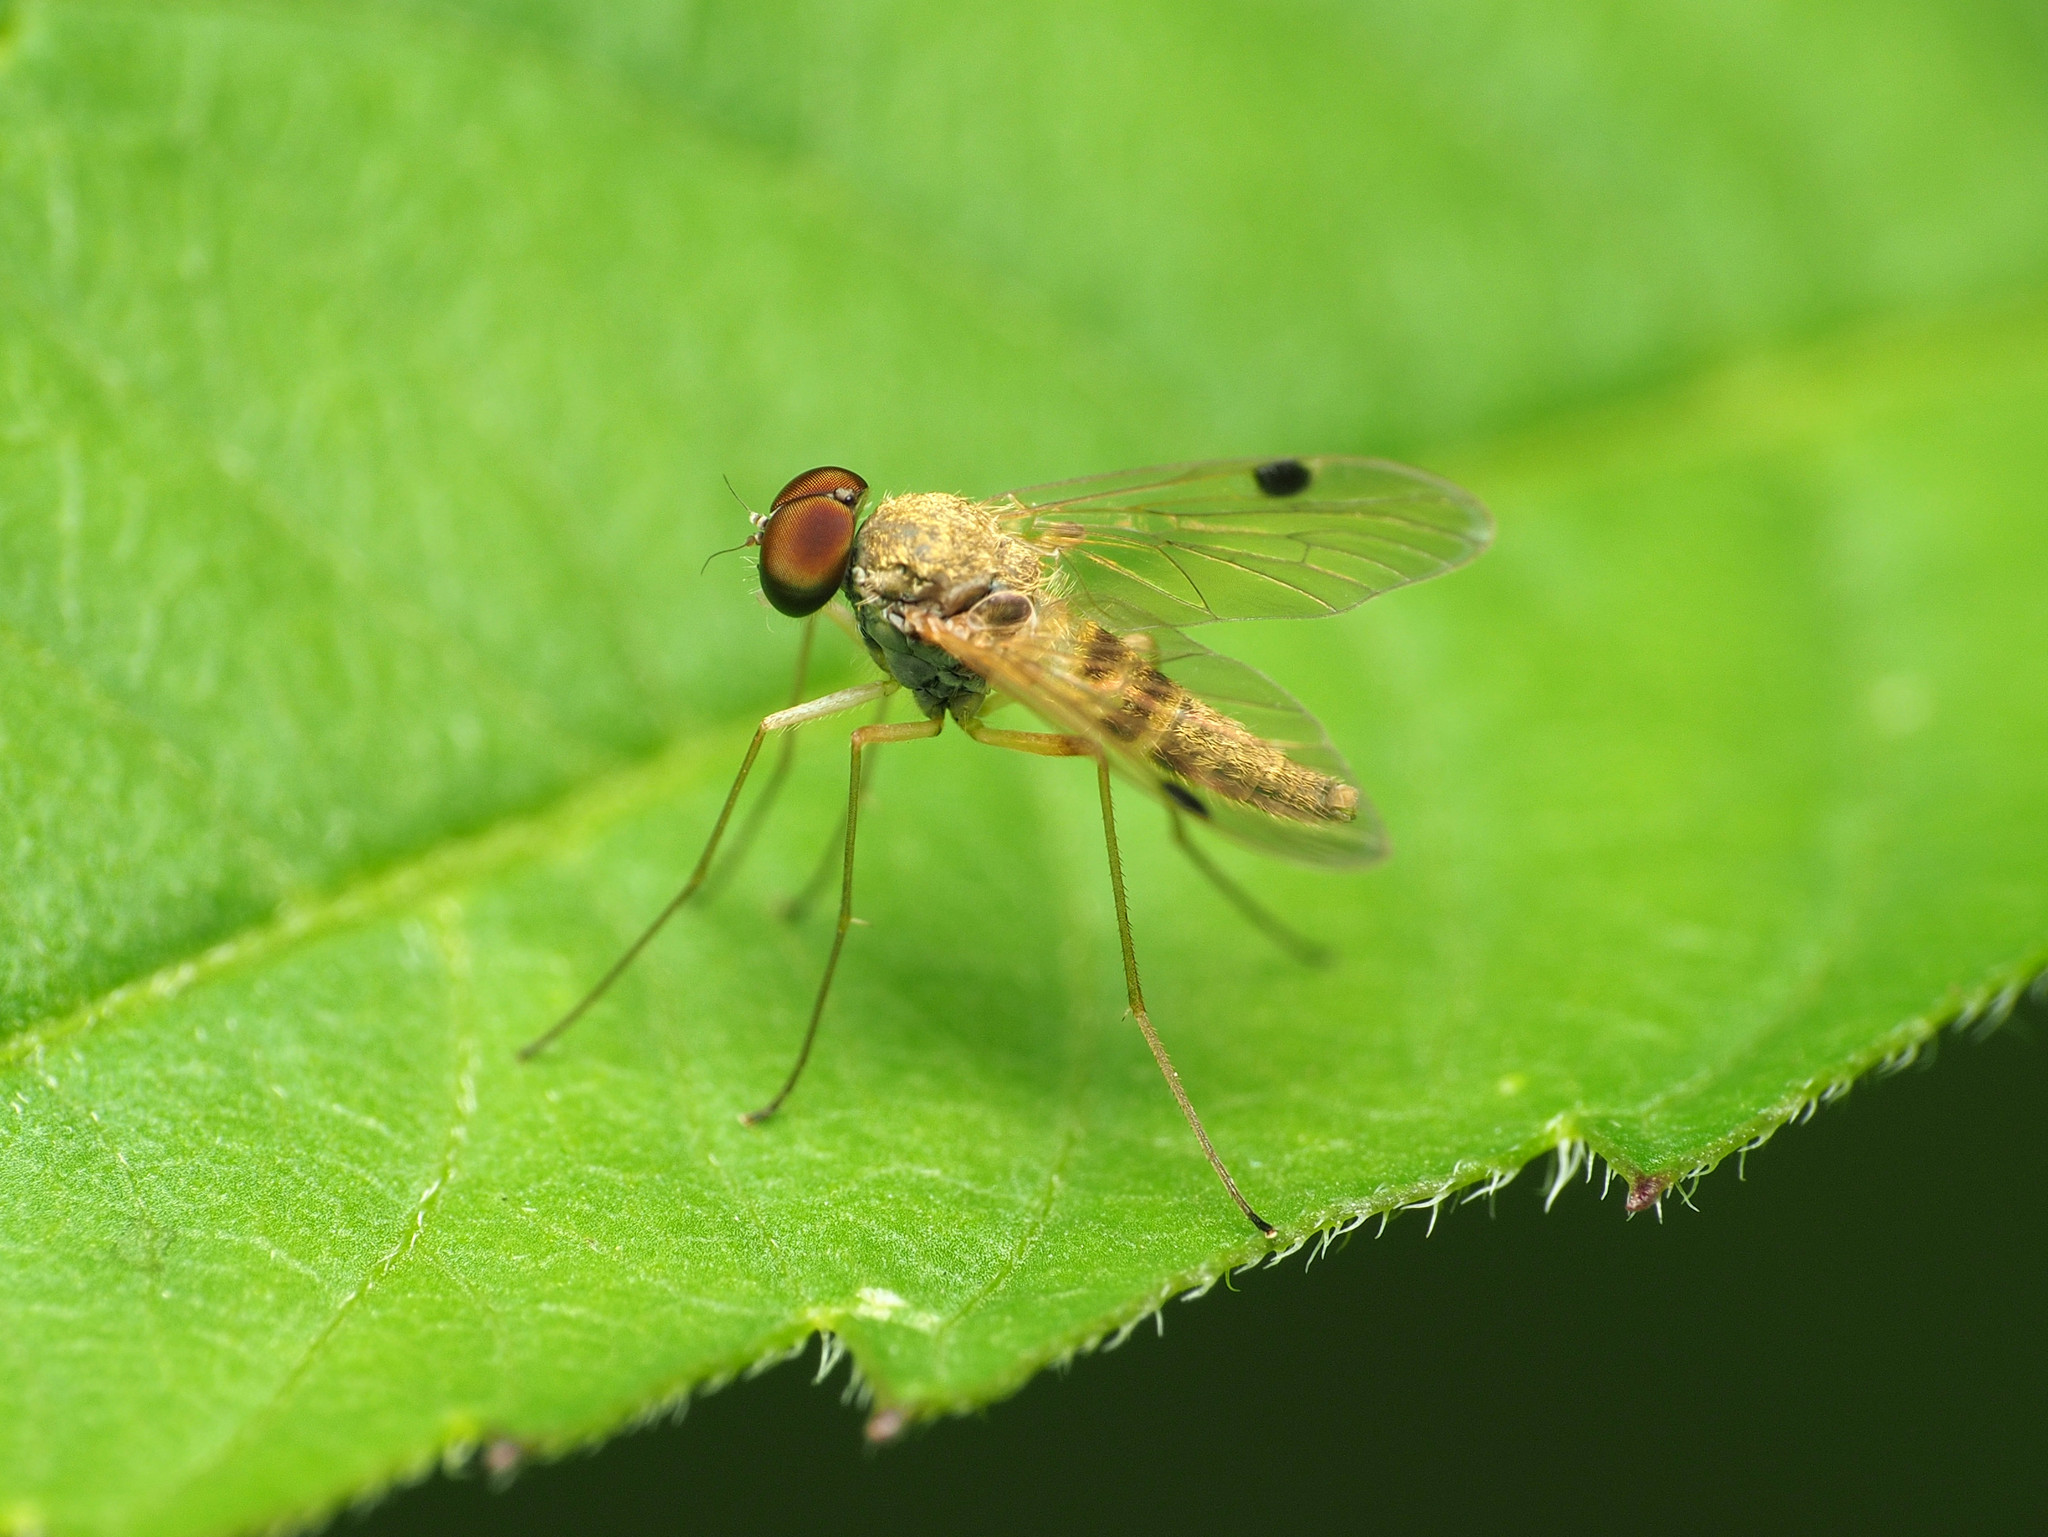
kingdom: Animalia
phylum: Arthropoda
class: Insecta
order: Diptera
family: Rhagionidae
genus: Chrysopilus
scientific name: Chrysopilus modestus
